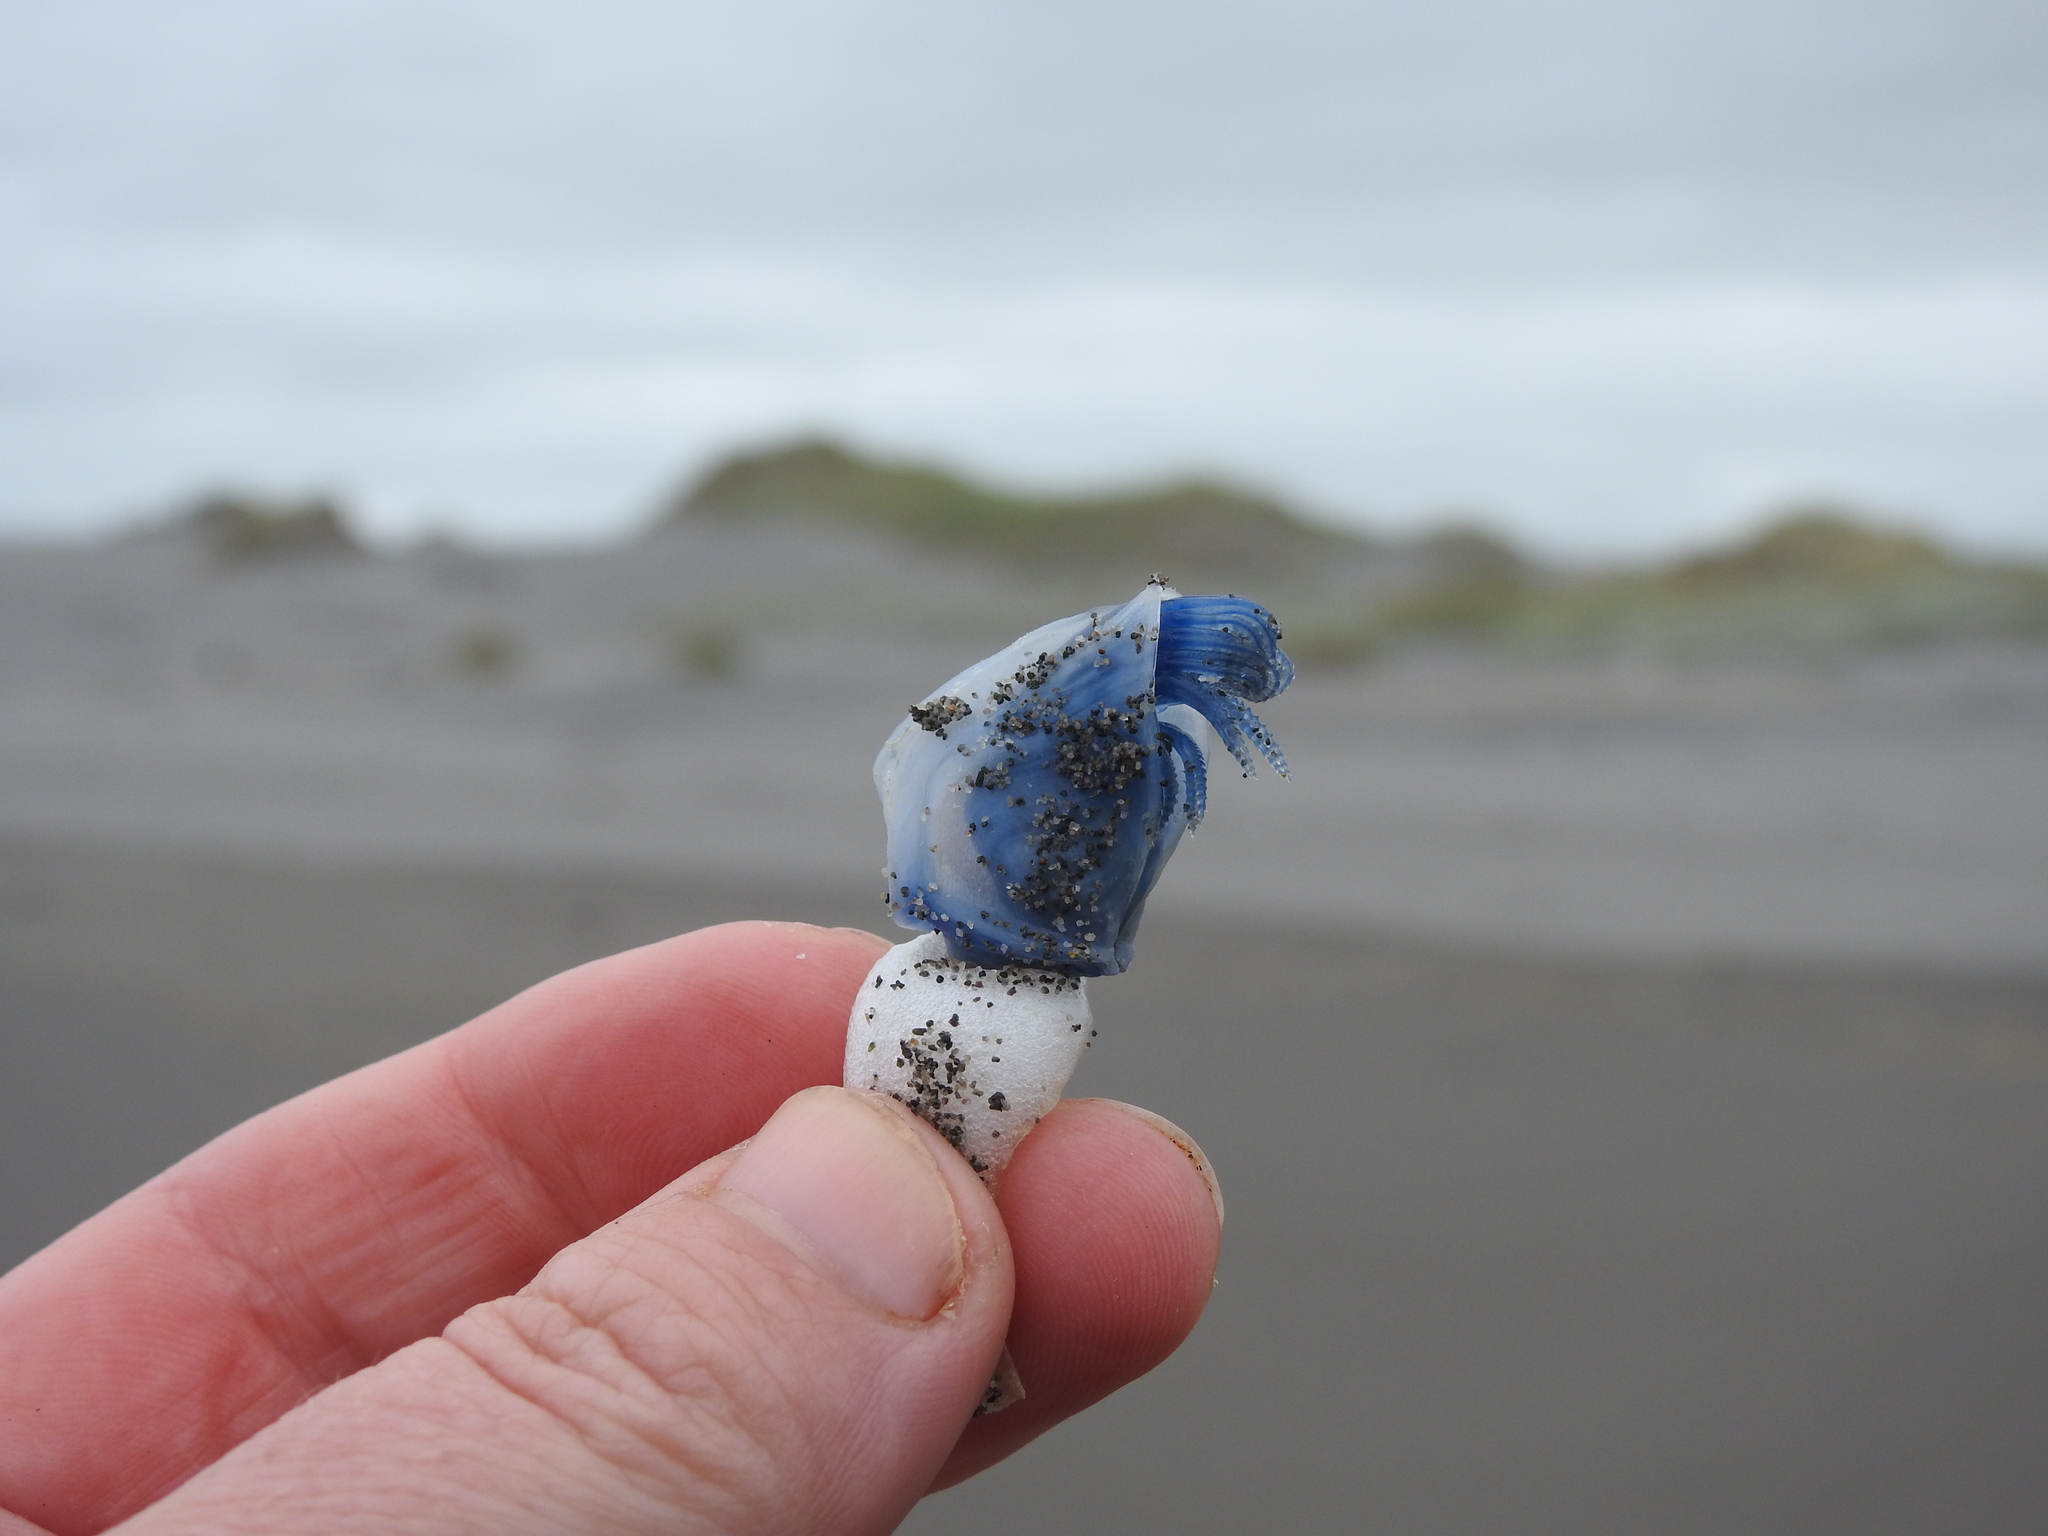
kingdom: Animalia
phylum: Arthropoda
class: Maxillopoda
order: Pedunculata
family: Lepadidae
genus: Dosima
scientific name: Dosima fascicularis
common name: Buoy barnacle
